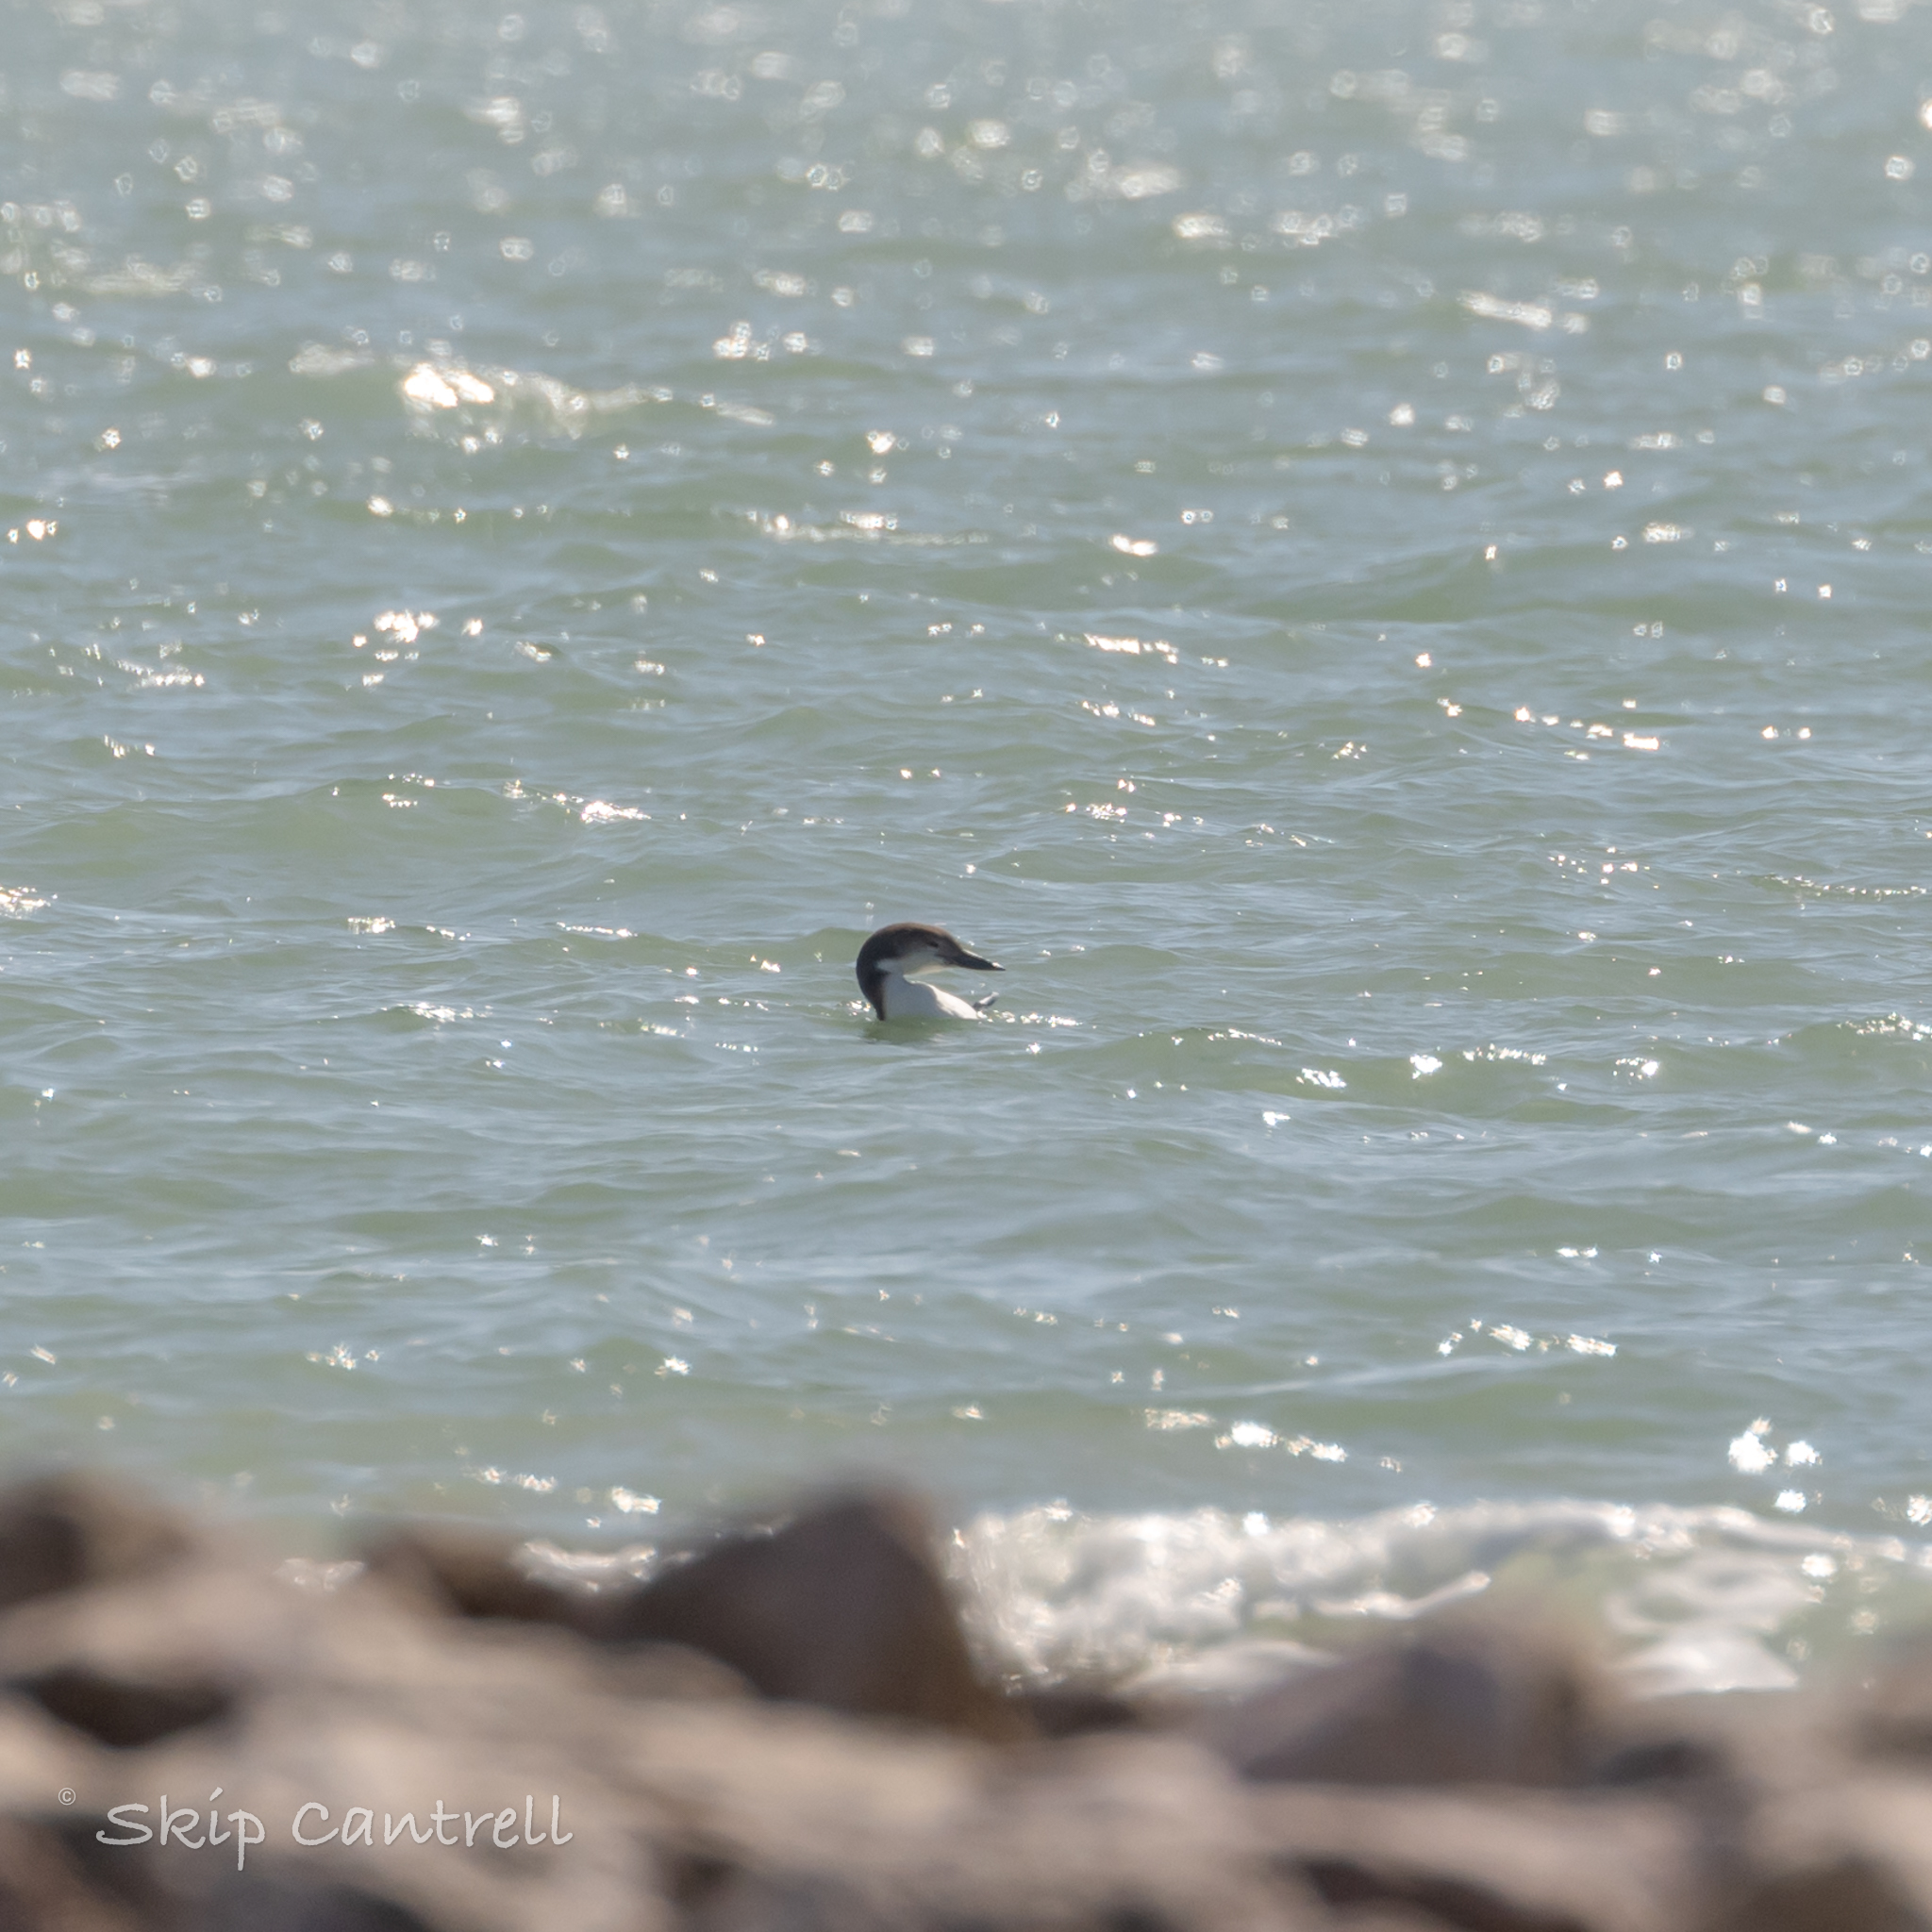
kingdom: Animalia
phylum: Chordata
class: Aves
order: Gaviiformes
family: Gaviidae
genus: Gavia
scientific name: Gavia immer
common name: Common loon
